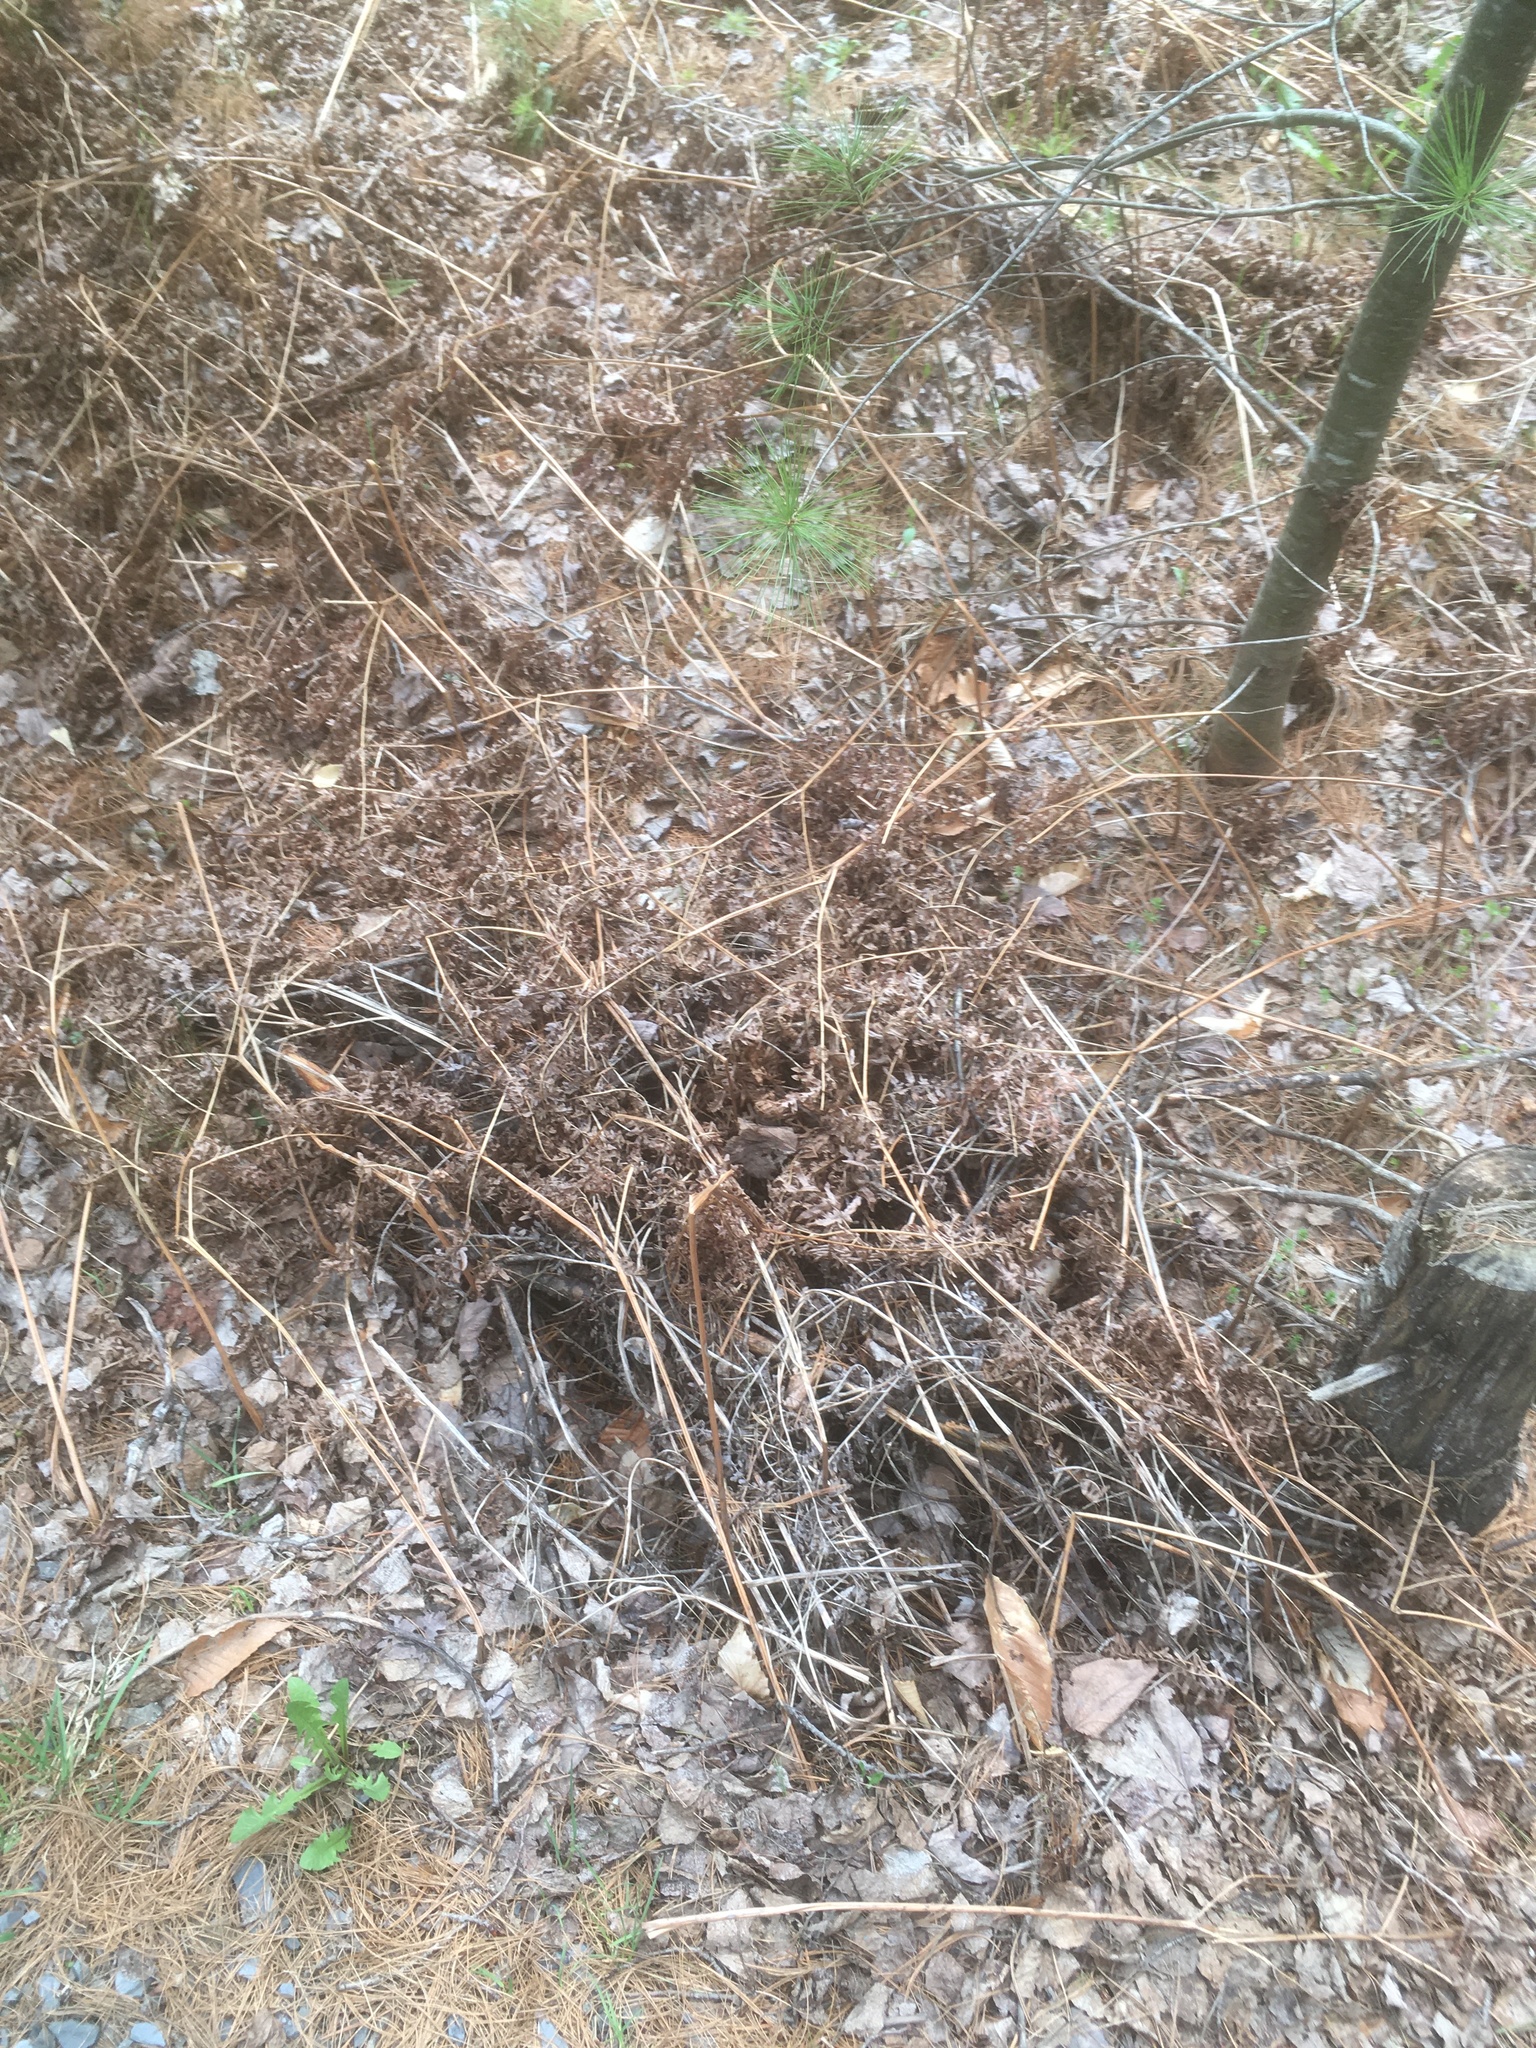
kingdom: Plantae
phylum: Tracheophyta
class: Polypodiopsida
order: Polypodiales
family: Dennstaedtiaceae
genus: Pteridium
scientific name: Pteridium aquilinum
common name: Bracken
